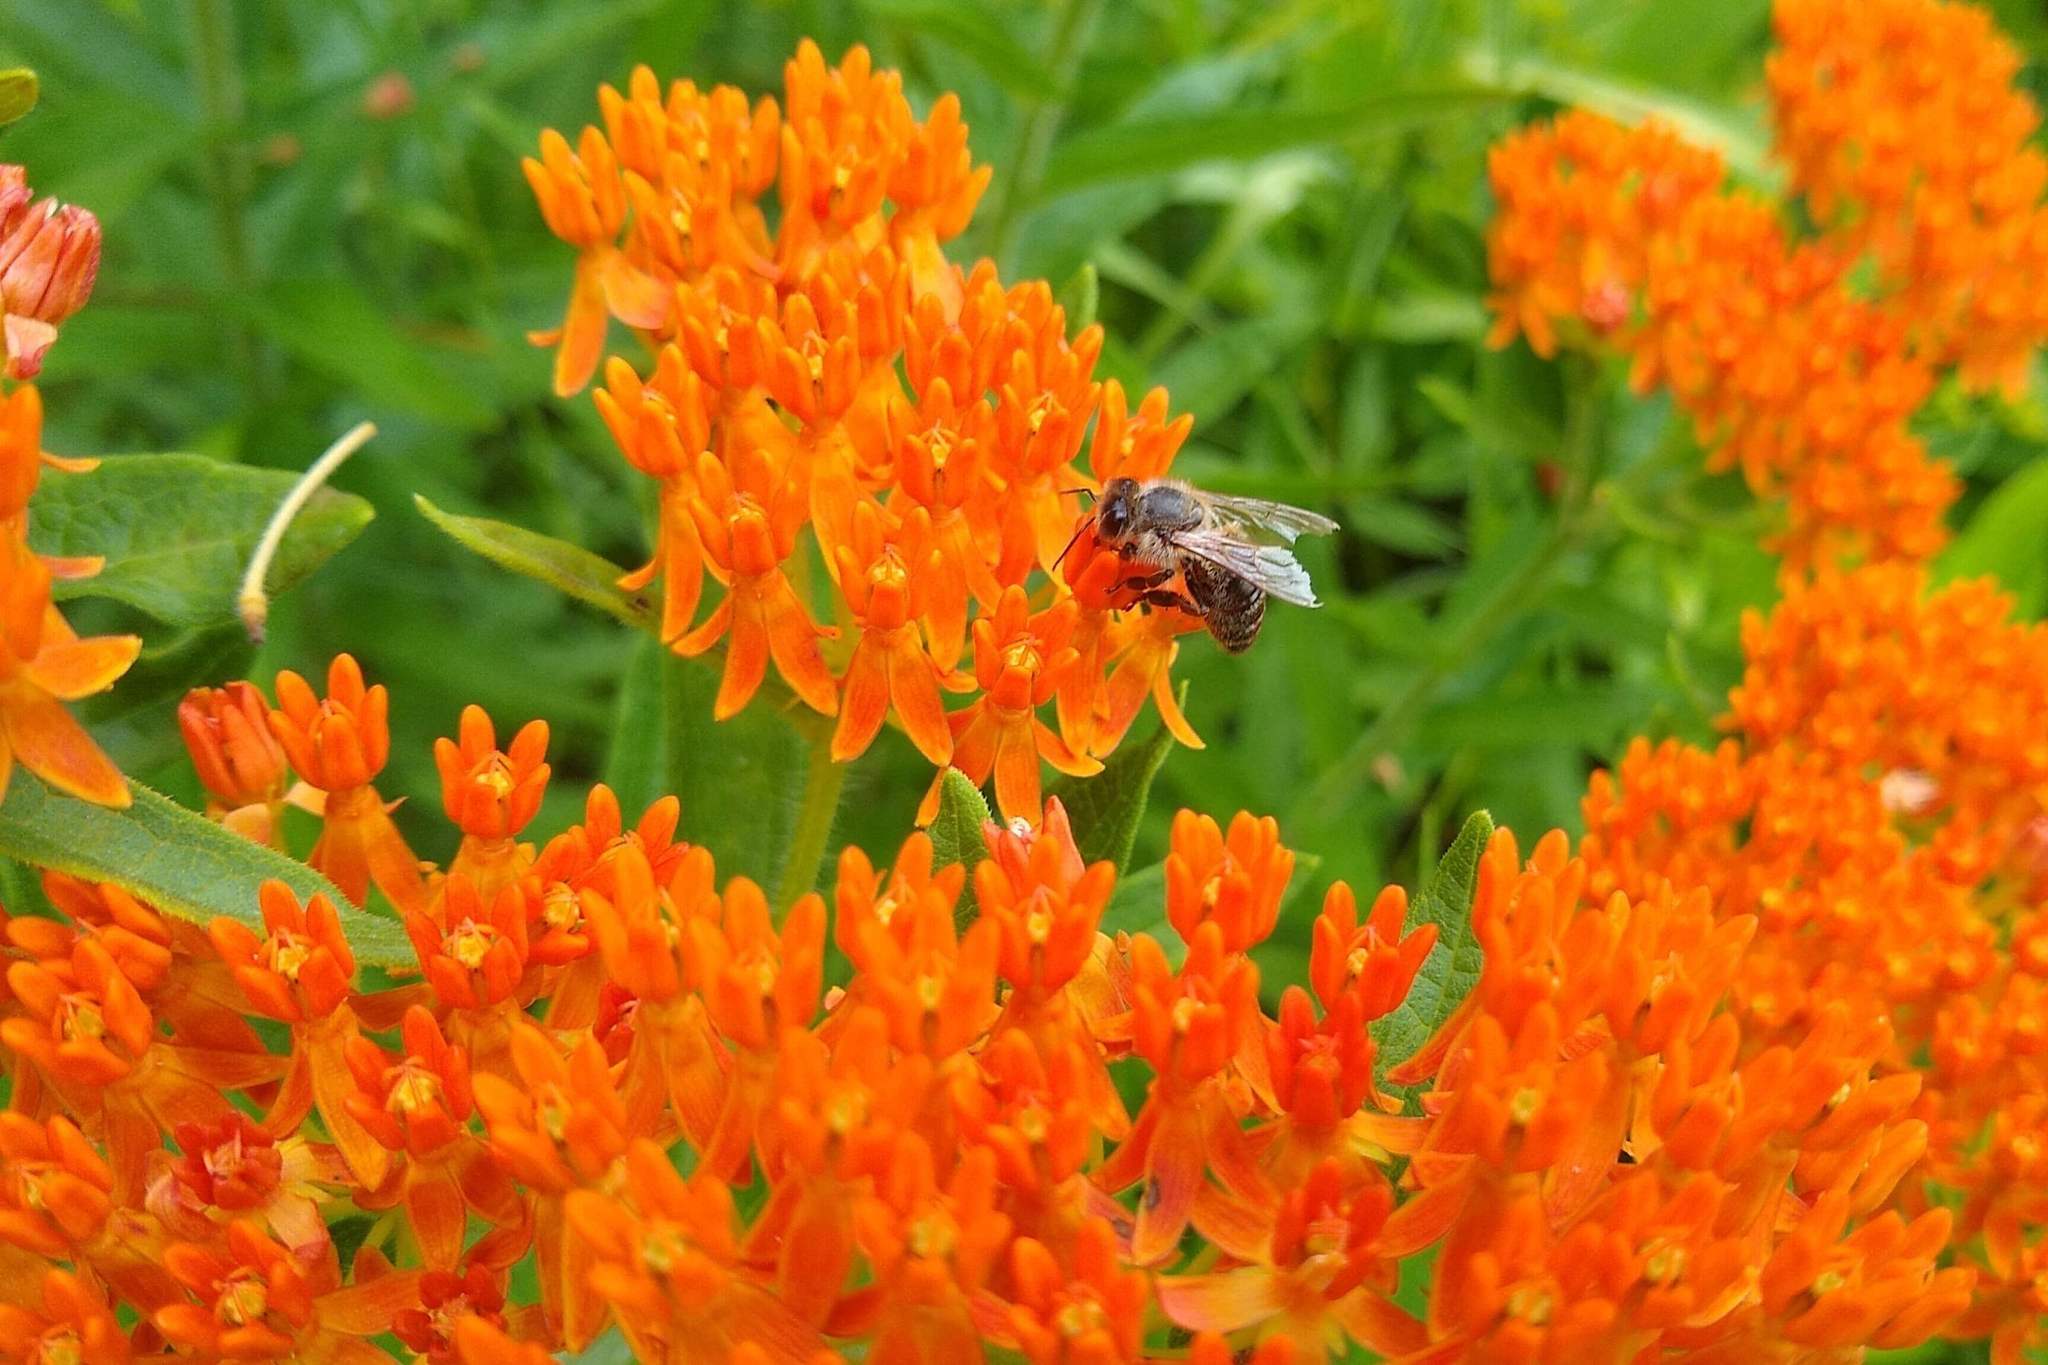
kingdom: Plantae
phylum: Tracheophyta
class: Magnoliopsida
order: Gentianales
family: Apocynaceae
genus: Asclepias
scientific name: Asclepias tuberosa
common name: Butterfly milkweed
